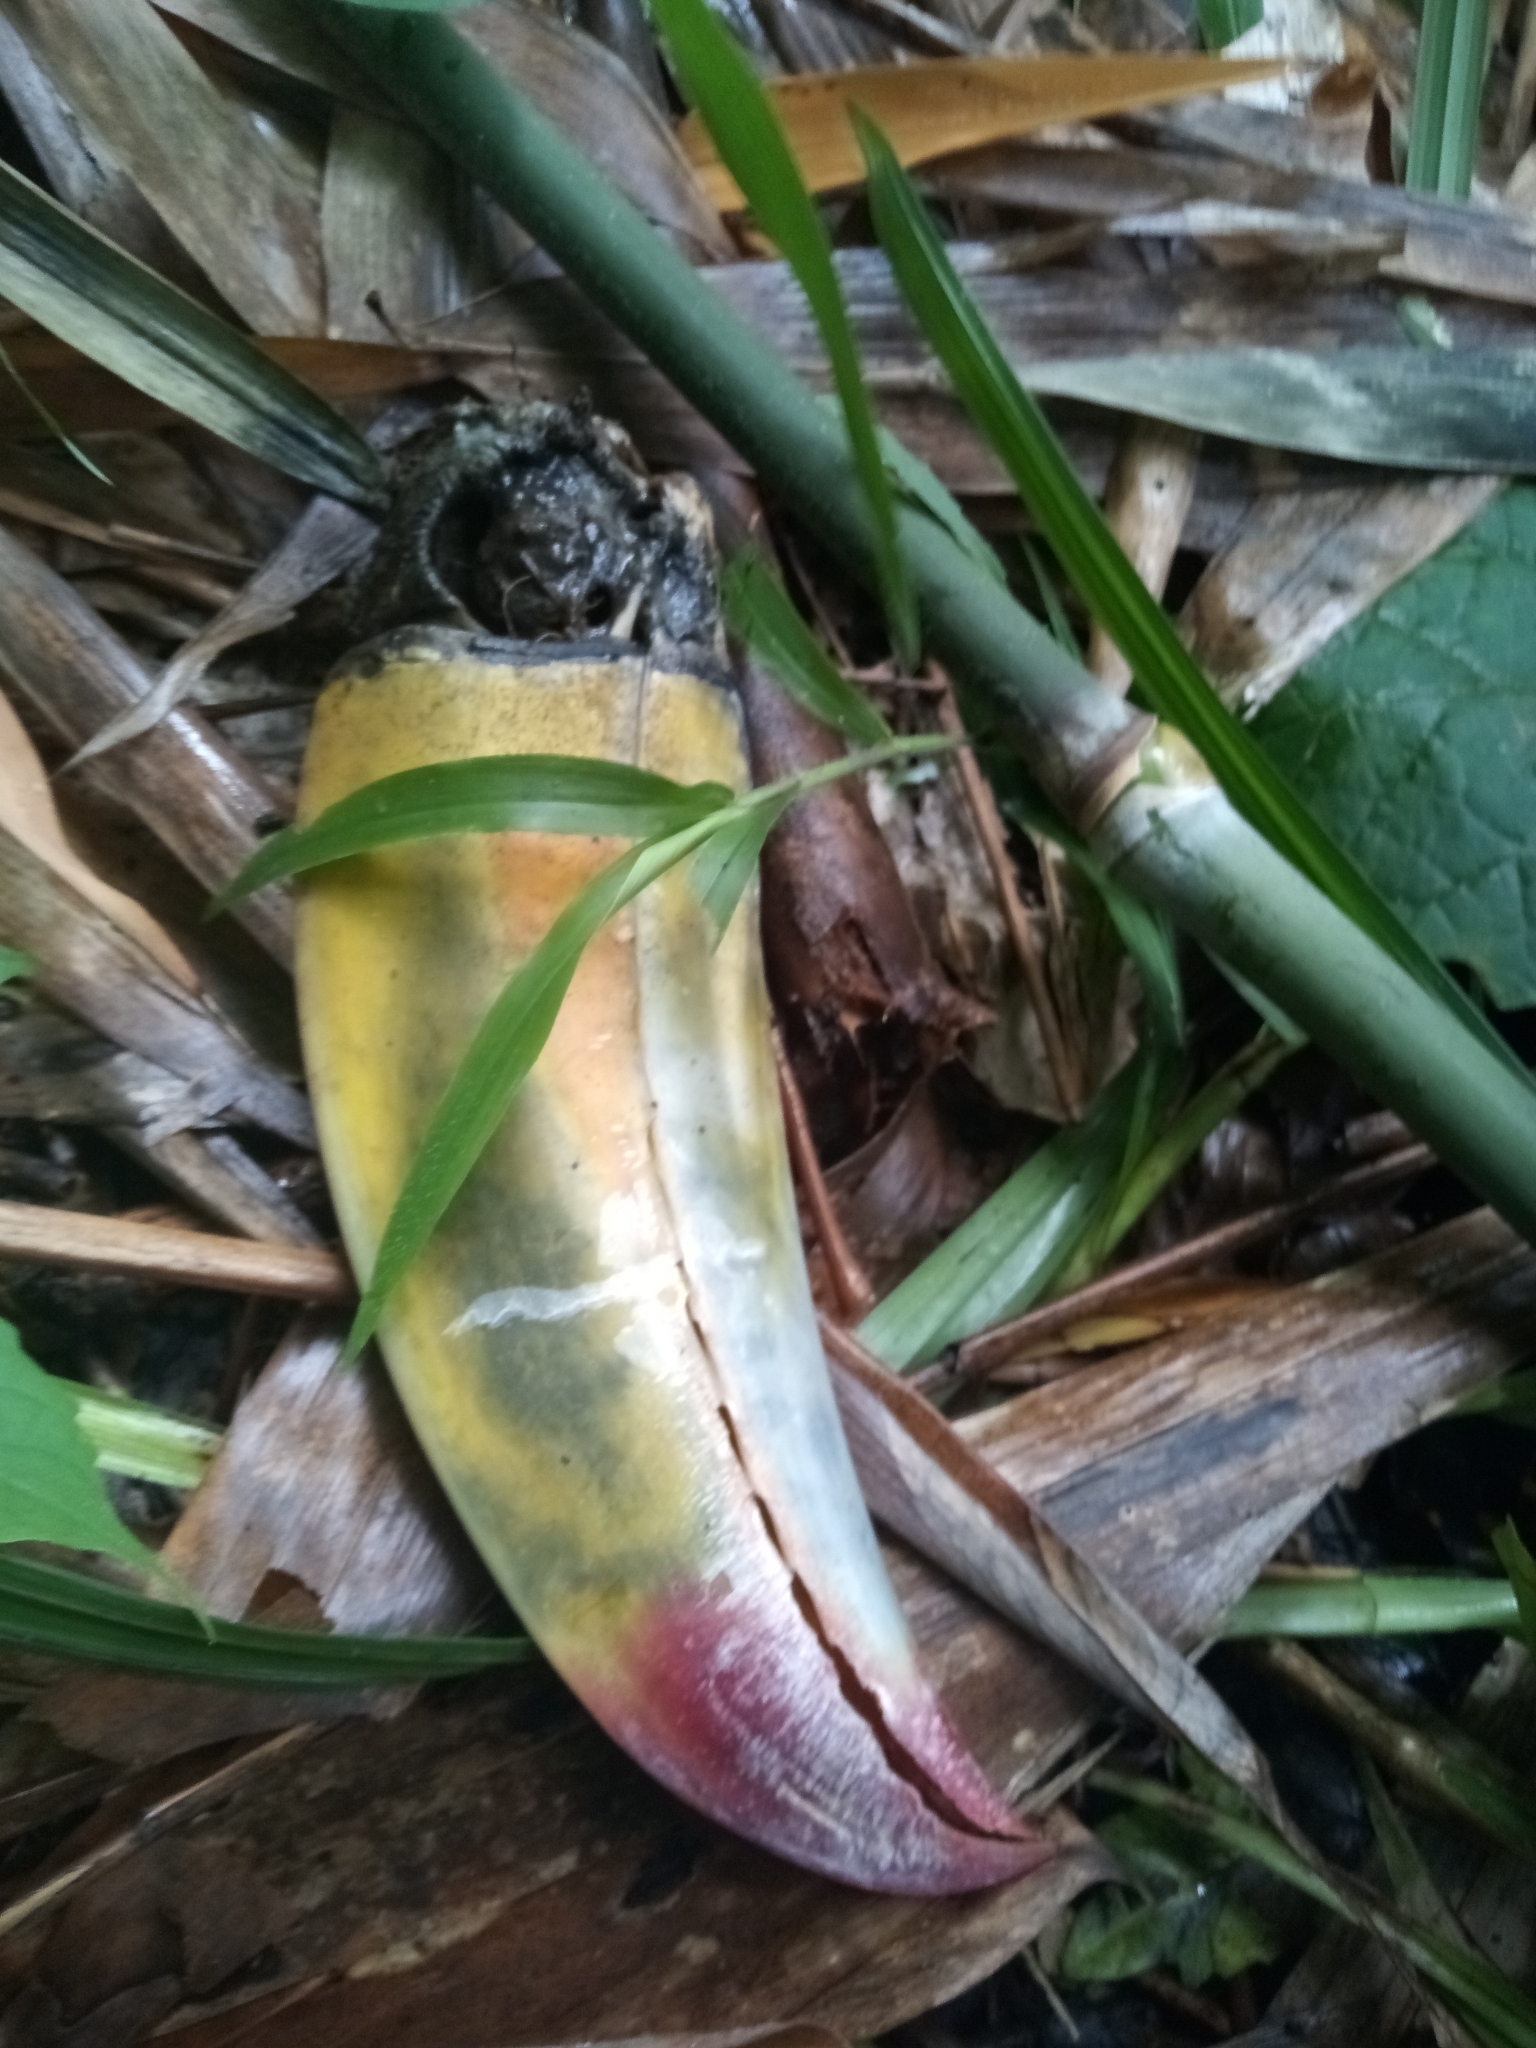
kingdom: Animalia
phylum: Chordata
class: Aves
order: Piciformes
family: Ramphastidae
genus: Ramphastos
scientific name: Ramphastos sulfuratus
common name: Keel-billed toucan
